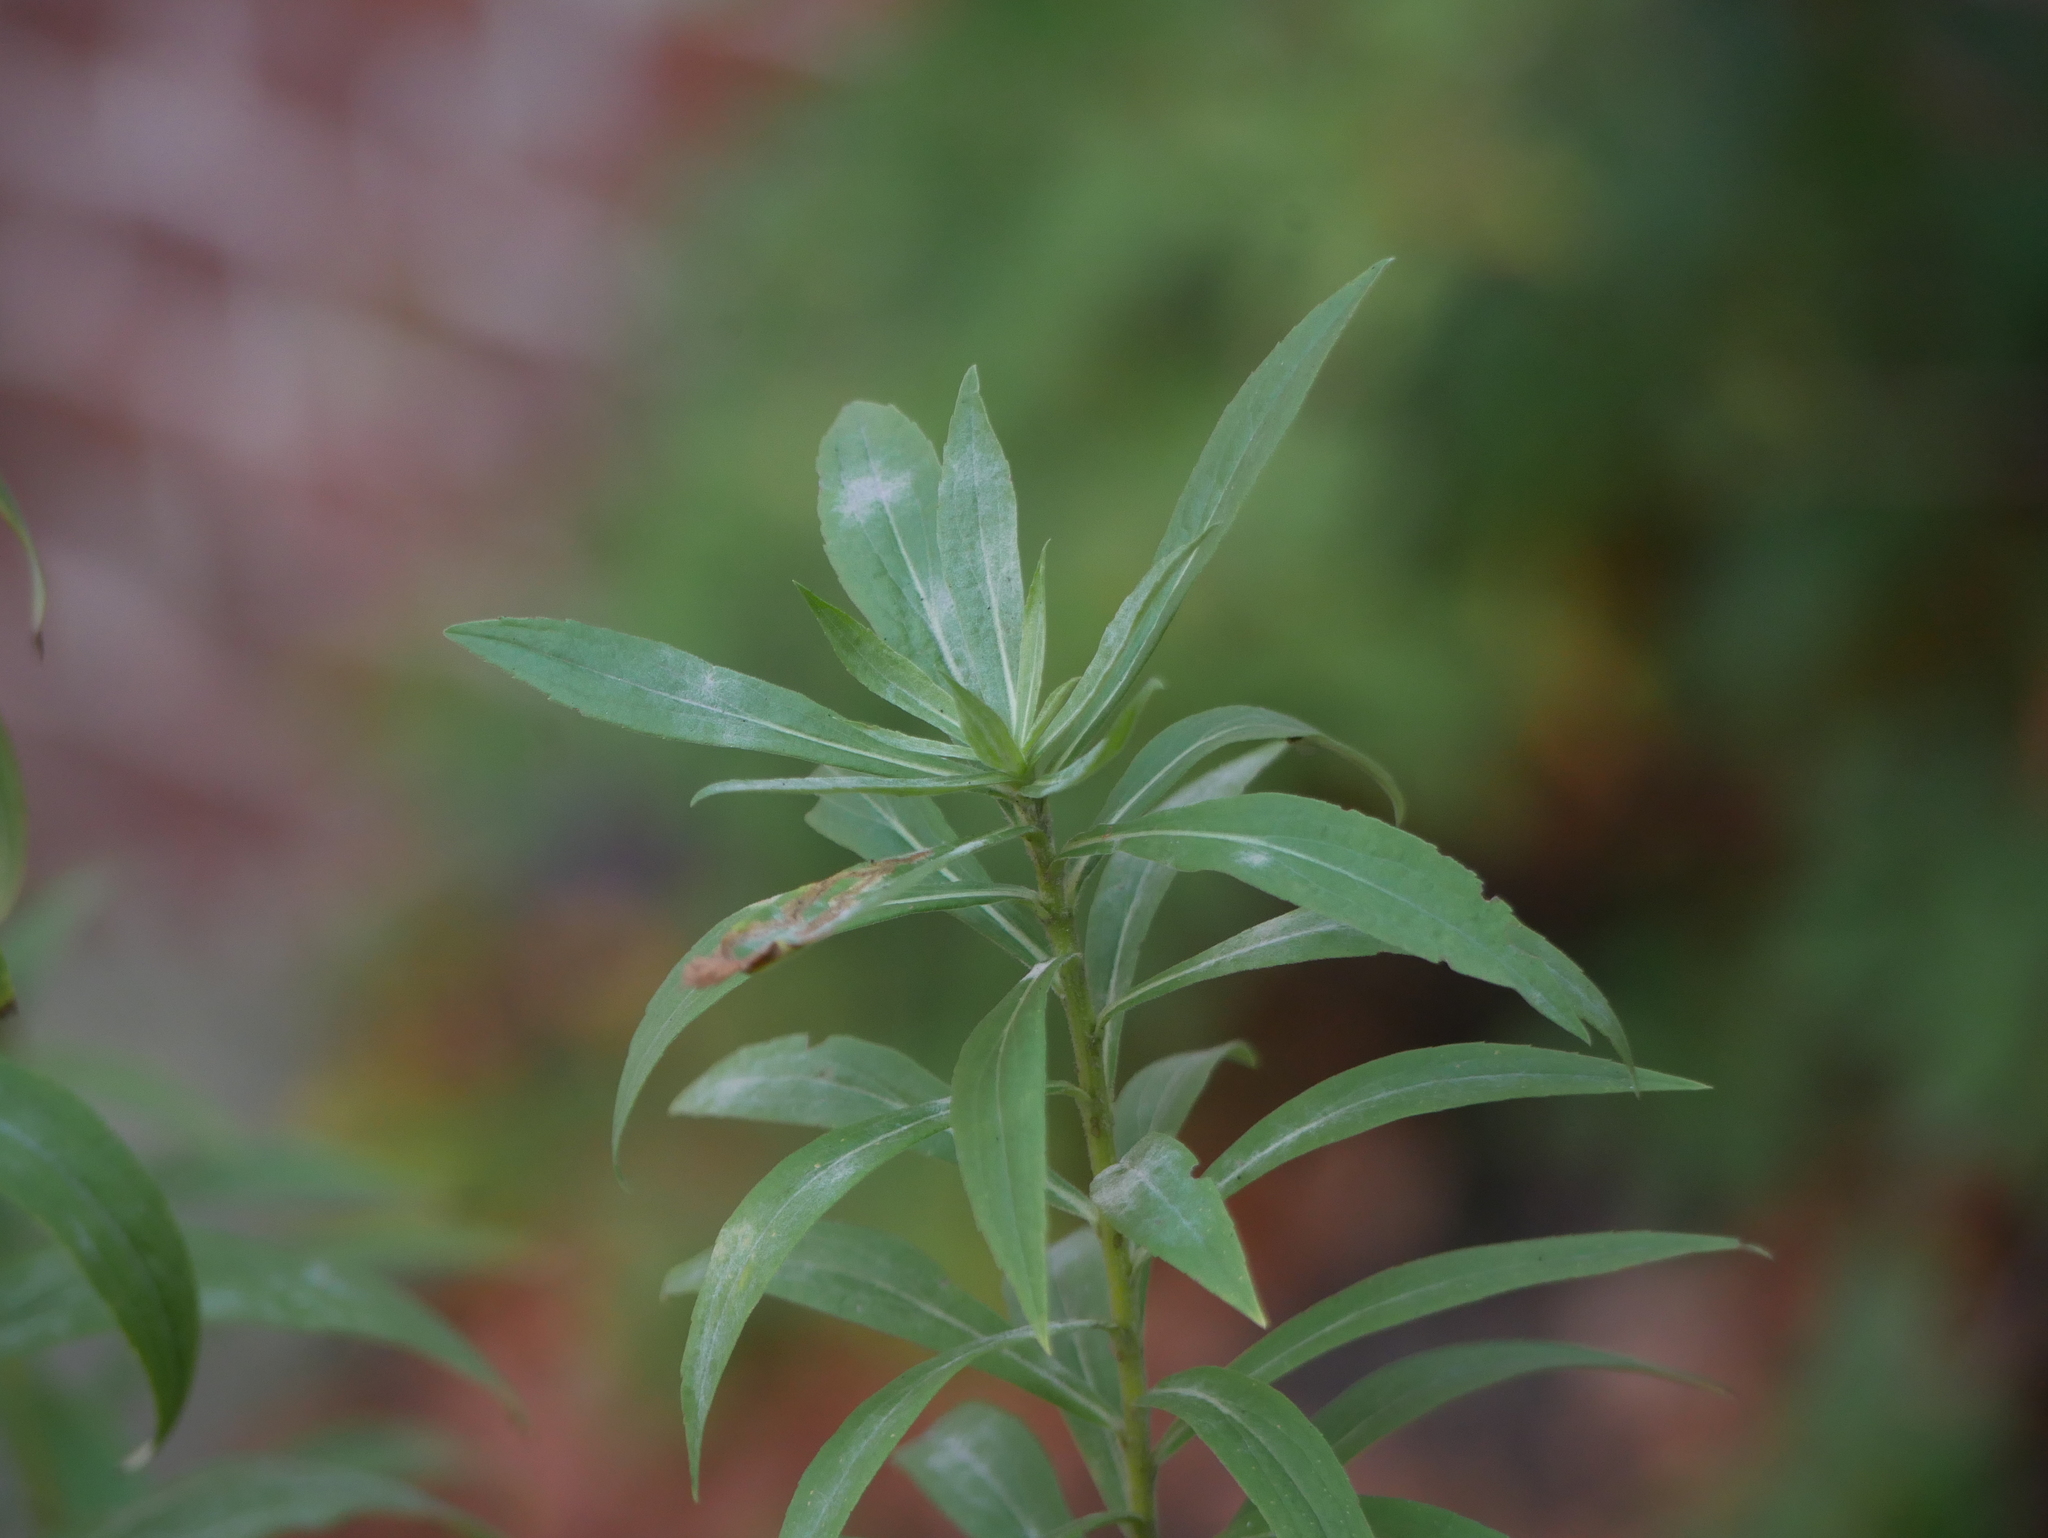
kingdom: Plantae
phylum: Tracheophyta
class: Magnoliopsida
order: Asterales
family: Asteraceae
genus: Solidago
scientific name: Solidago canadensis
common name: Canada goldenrod
